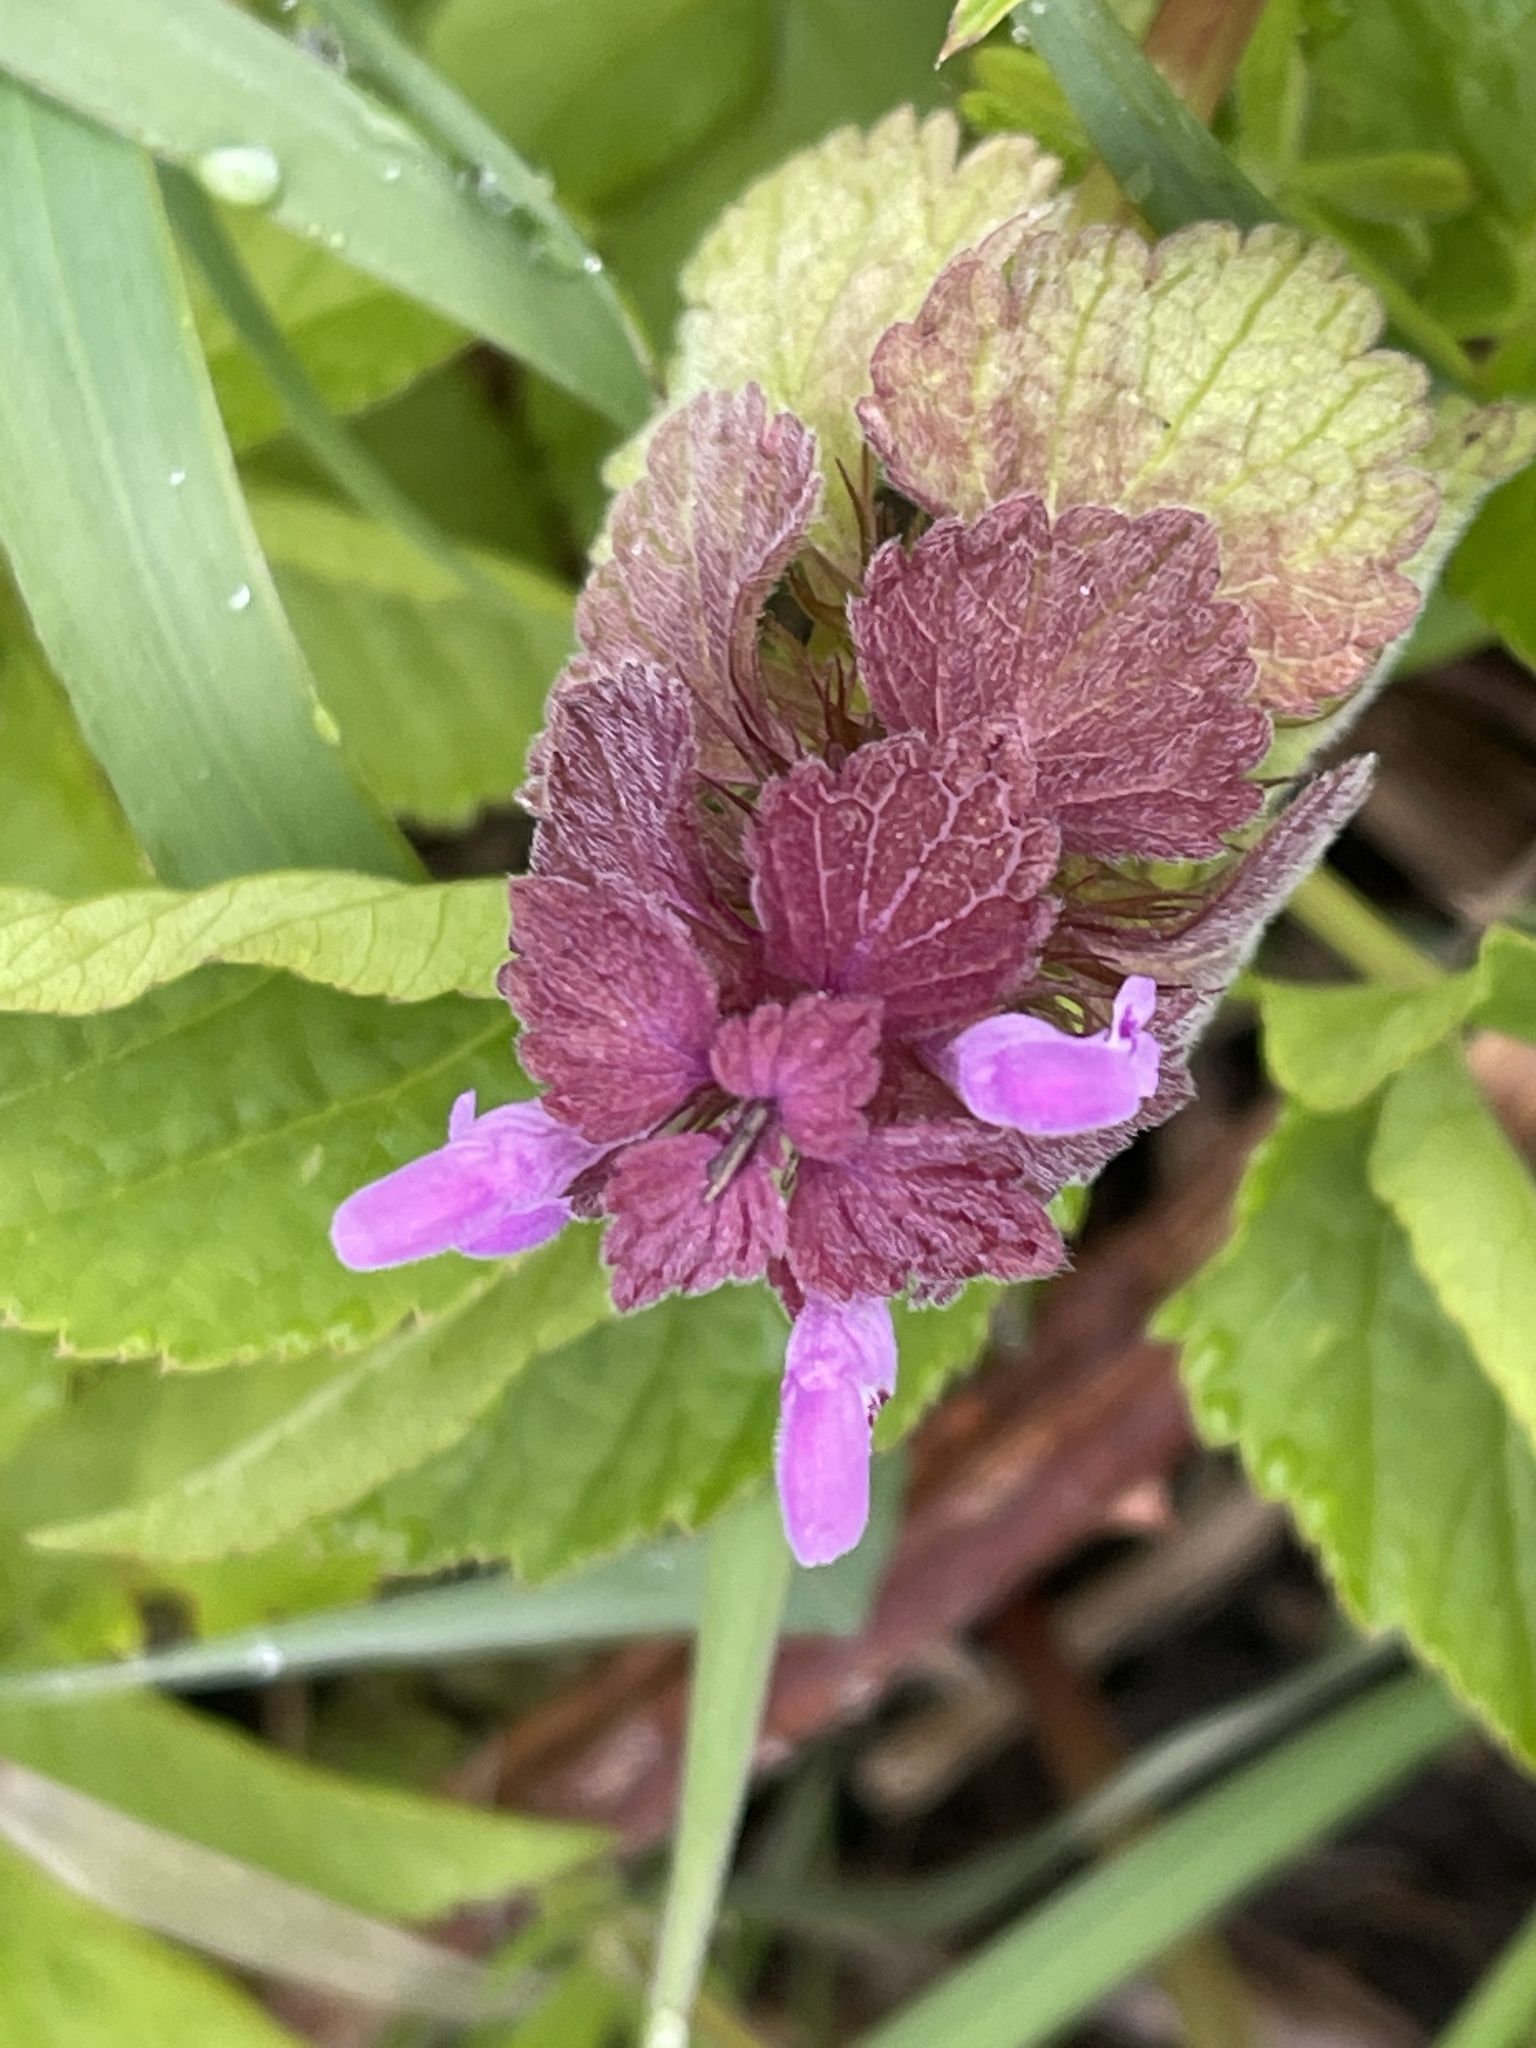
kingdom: Plantae
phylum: Tracheophyta
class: Magnoliopsida
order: Lamiales
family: Lamiaceae
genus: Lamium
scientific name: Lamium purpureum
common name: Red dead-nettle
